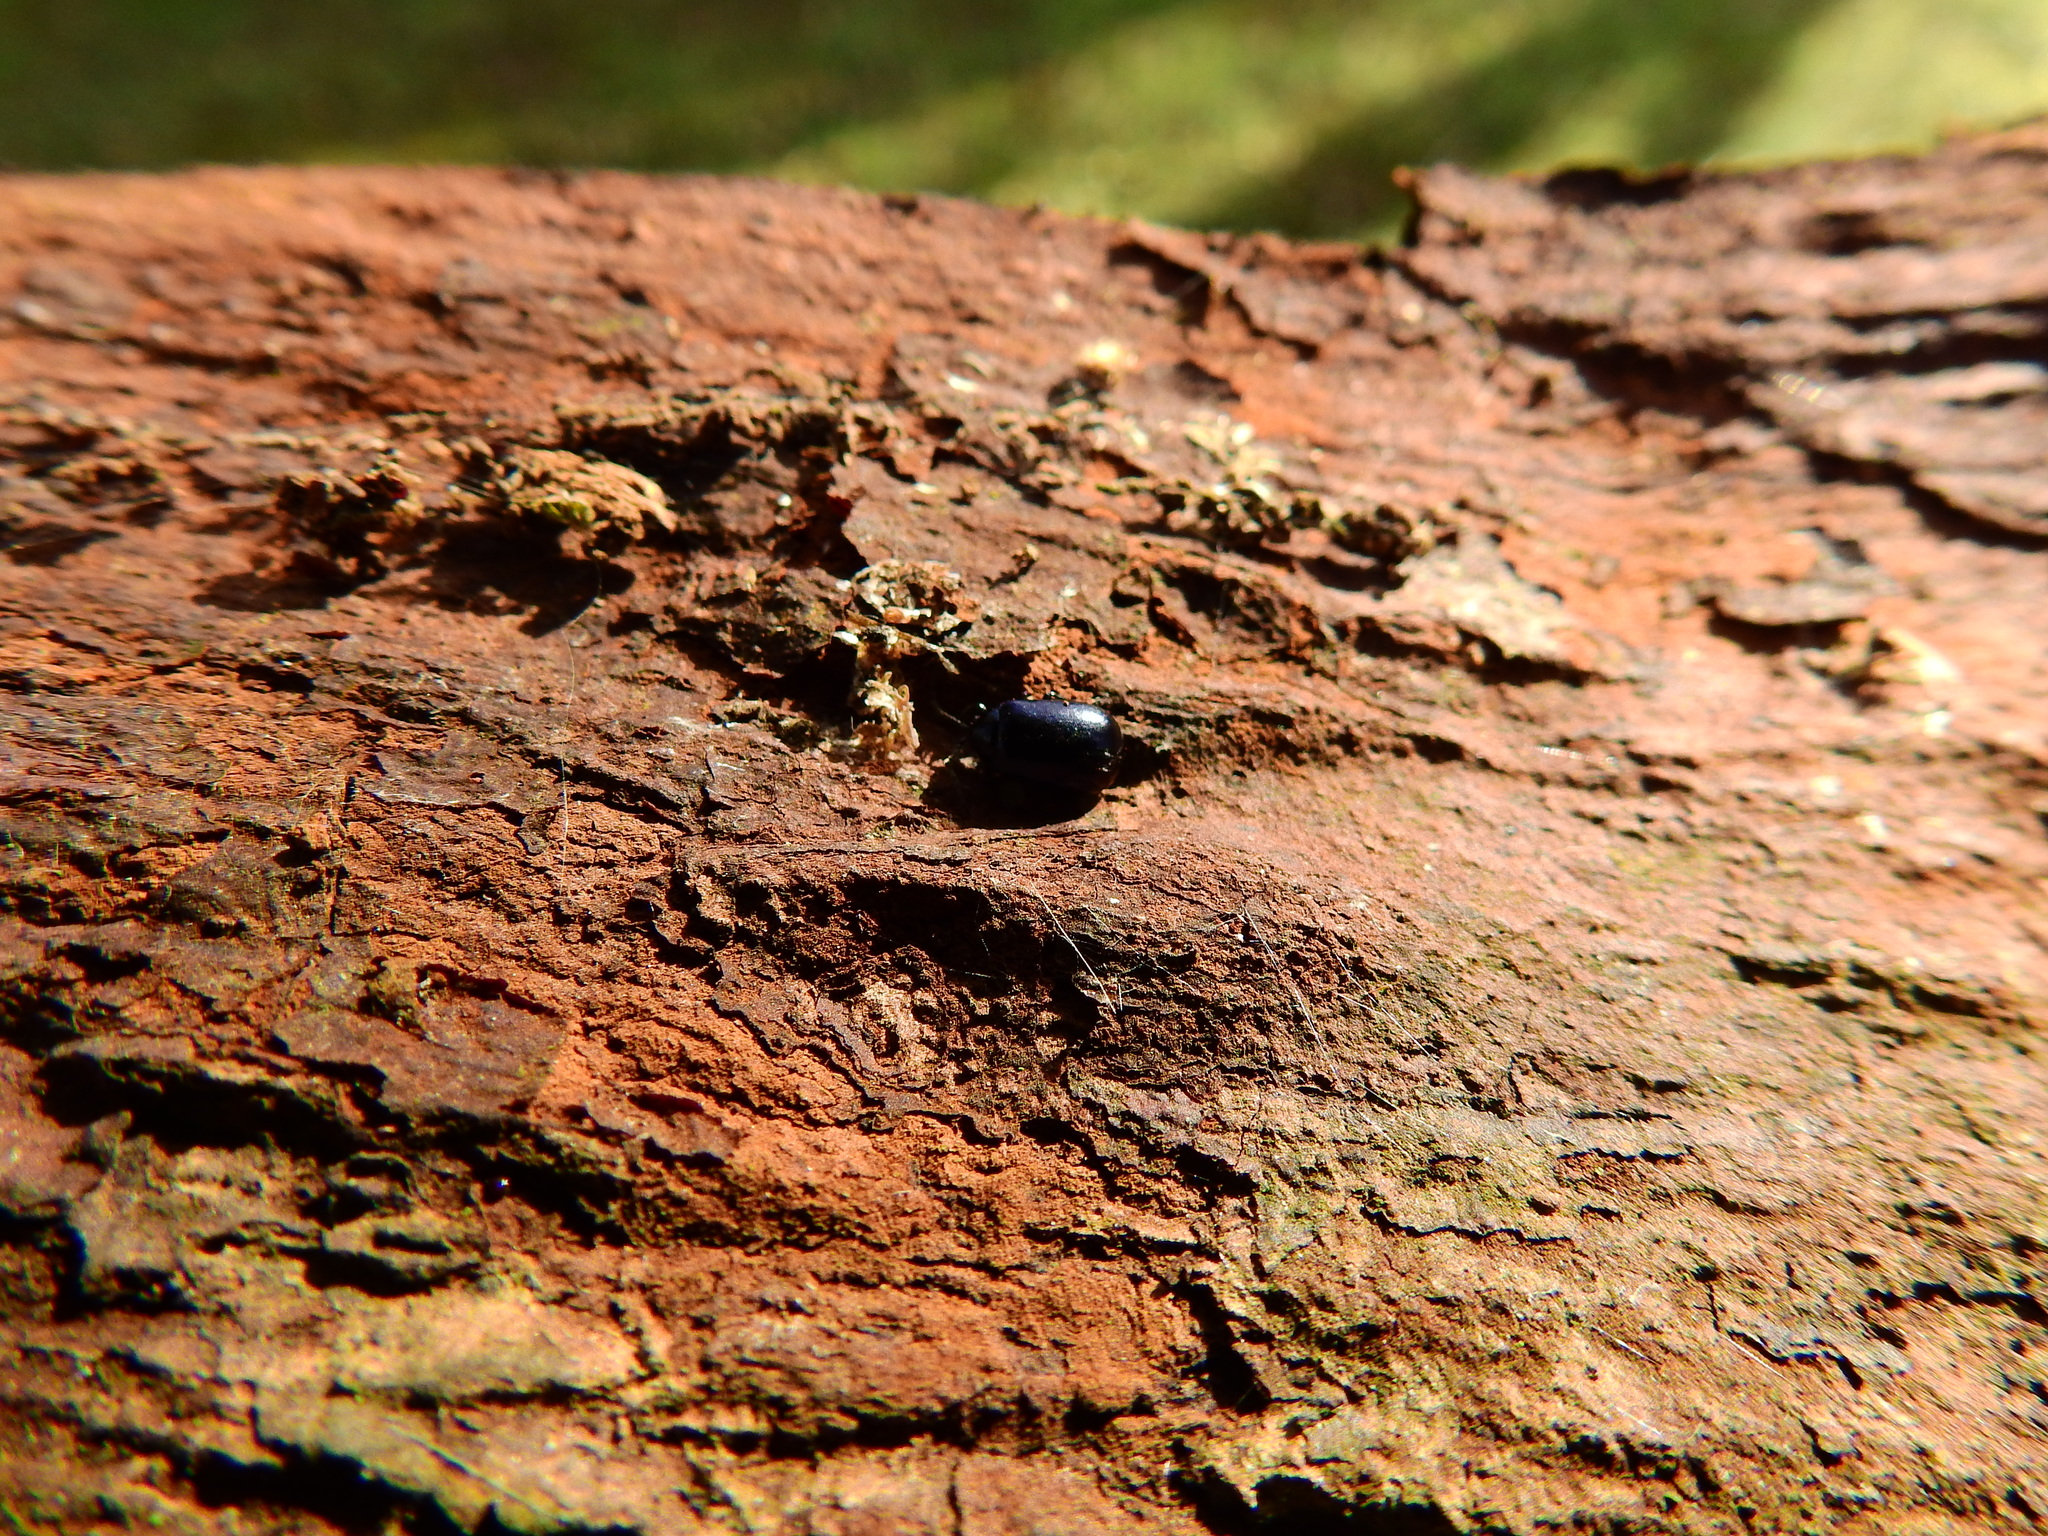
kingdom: Animalia
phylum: Arthropoda
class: Insecta
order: Coleoptera
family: Chrysomelidae
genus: Agelastica
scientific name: Agelastica alni
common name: Alder leaf beetle
